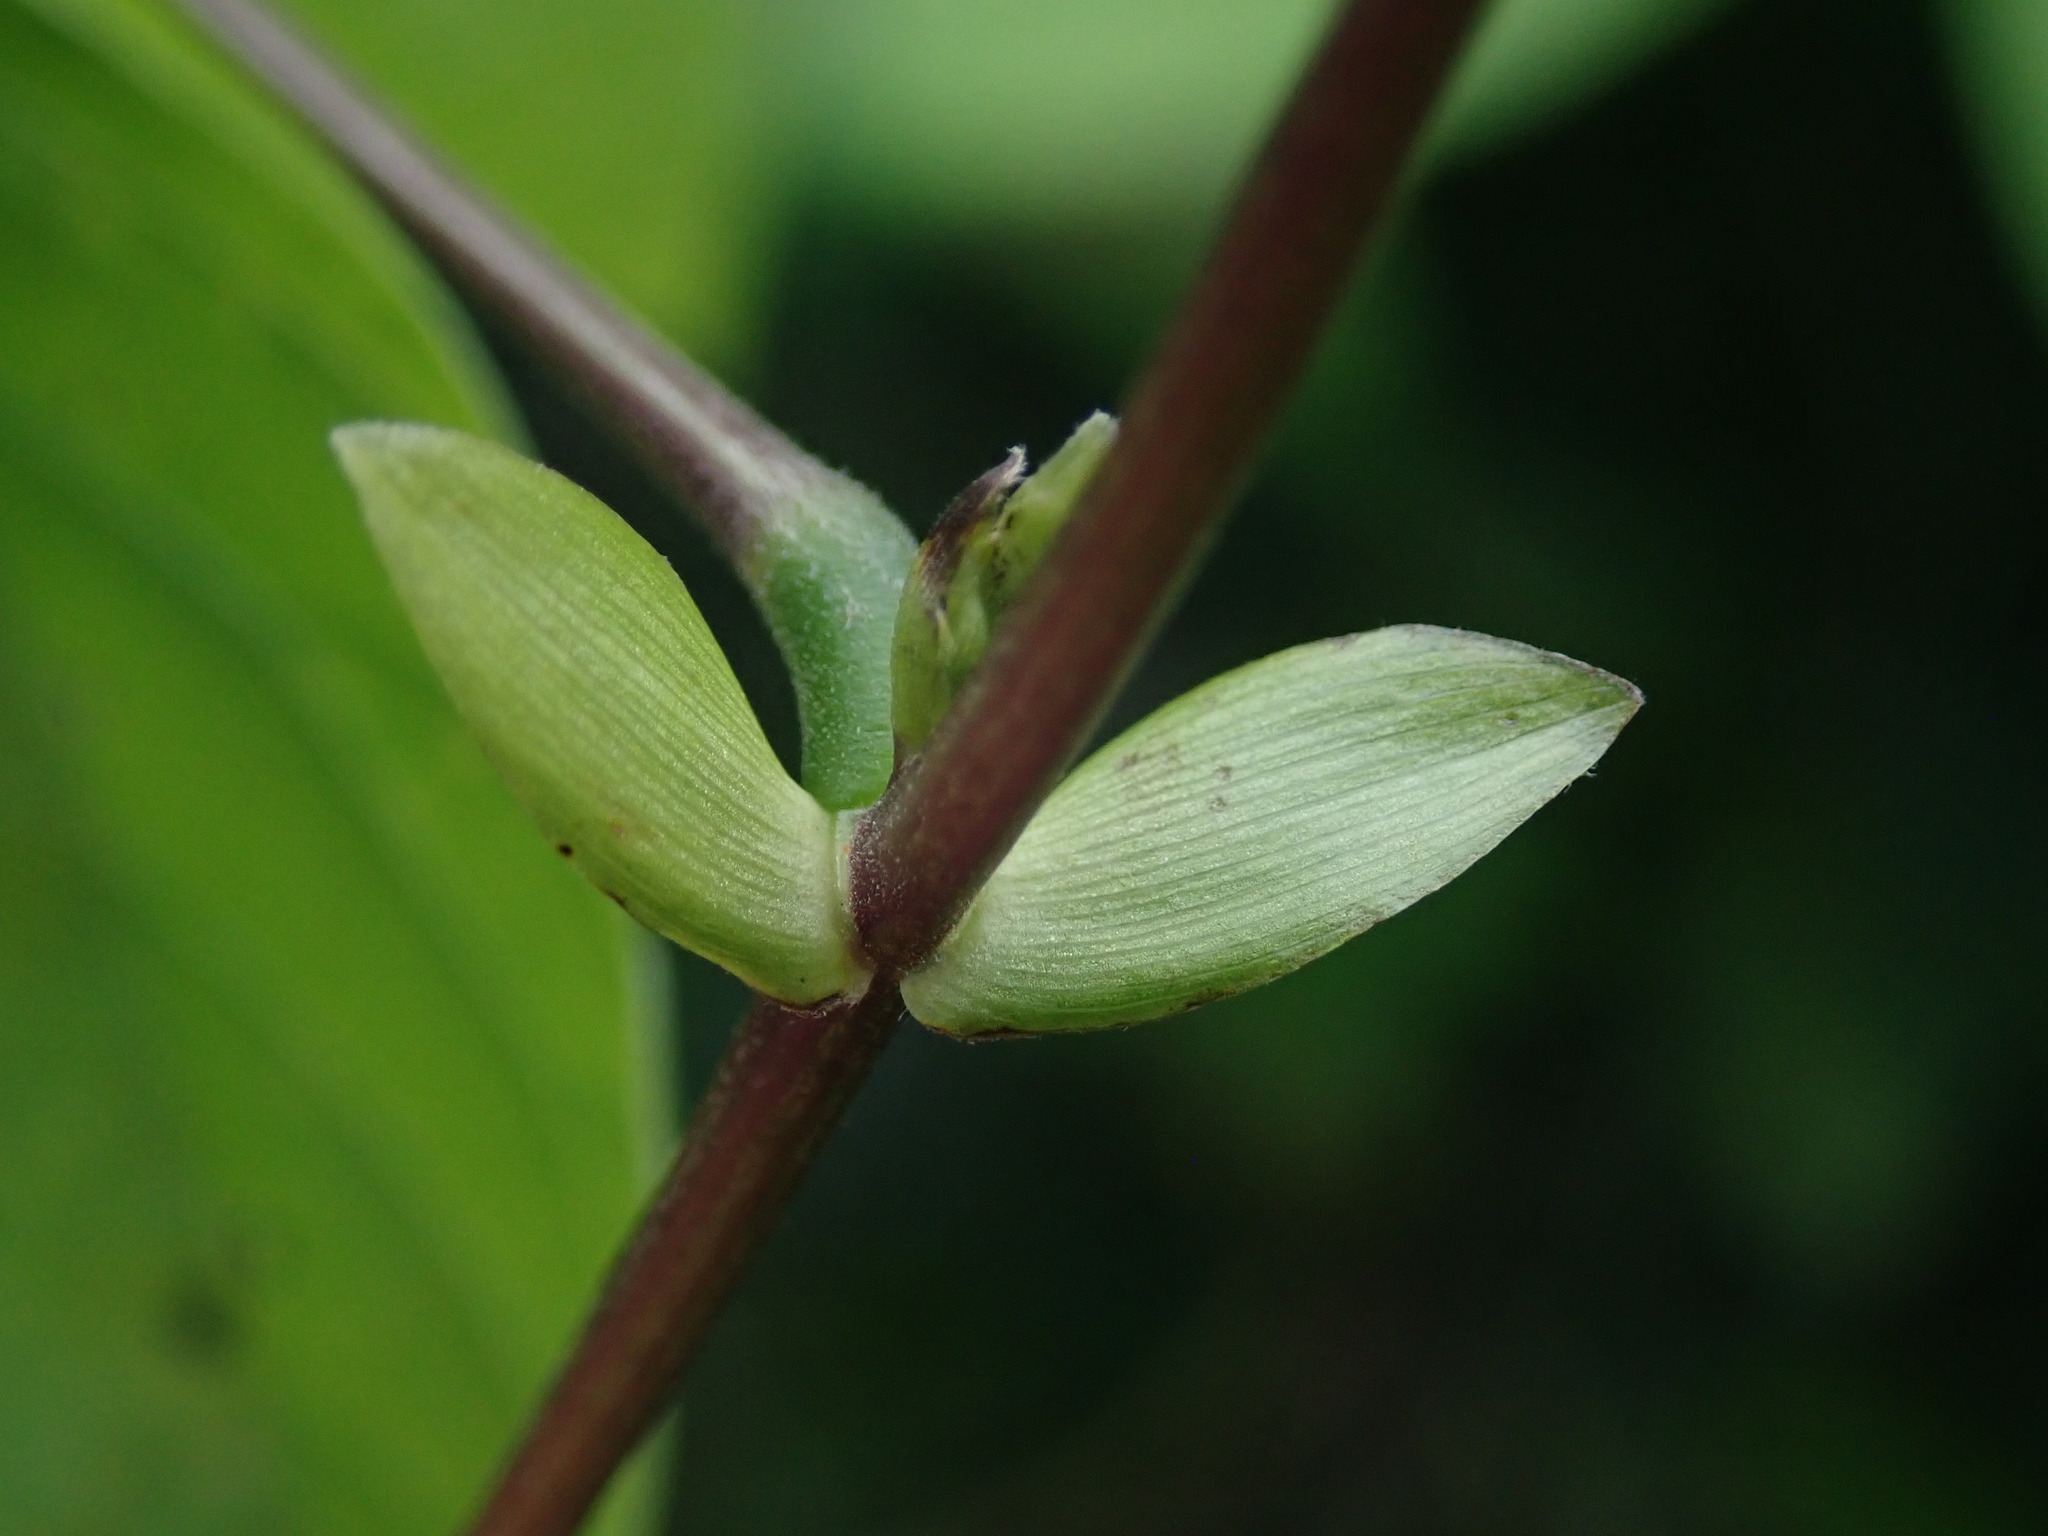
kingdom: Plantae
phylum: Tracheophyta
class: Magnoliopsida
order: Fabales
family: Fabaceae
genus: Centrosema
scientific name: Centrosema plumieri
